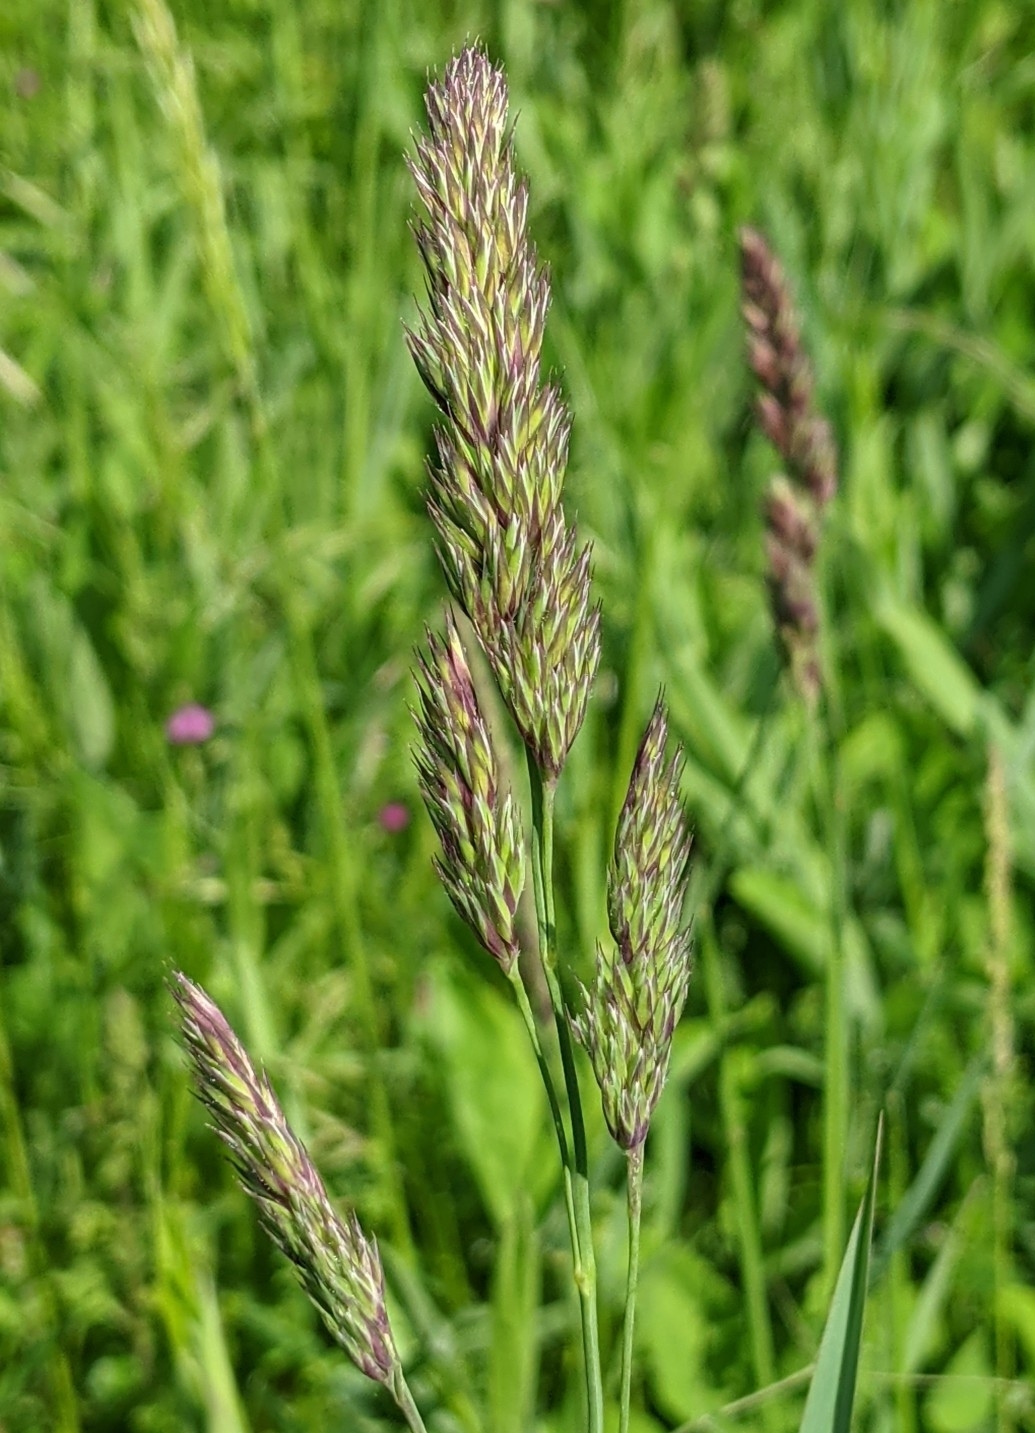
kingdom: Plantae
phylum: Tracheophyta
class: Liliopsida
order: Poales
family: Poaceae
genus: Dactylis
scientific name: Dactylis glomerata
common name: Orchardgrass
